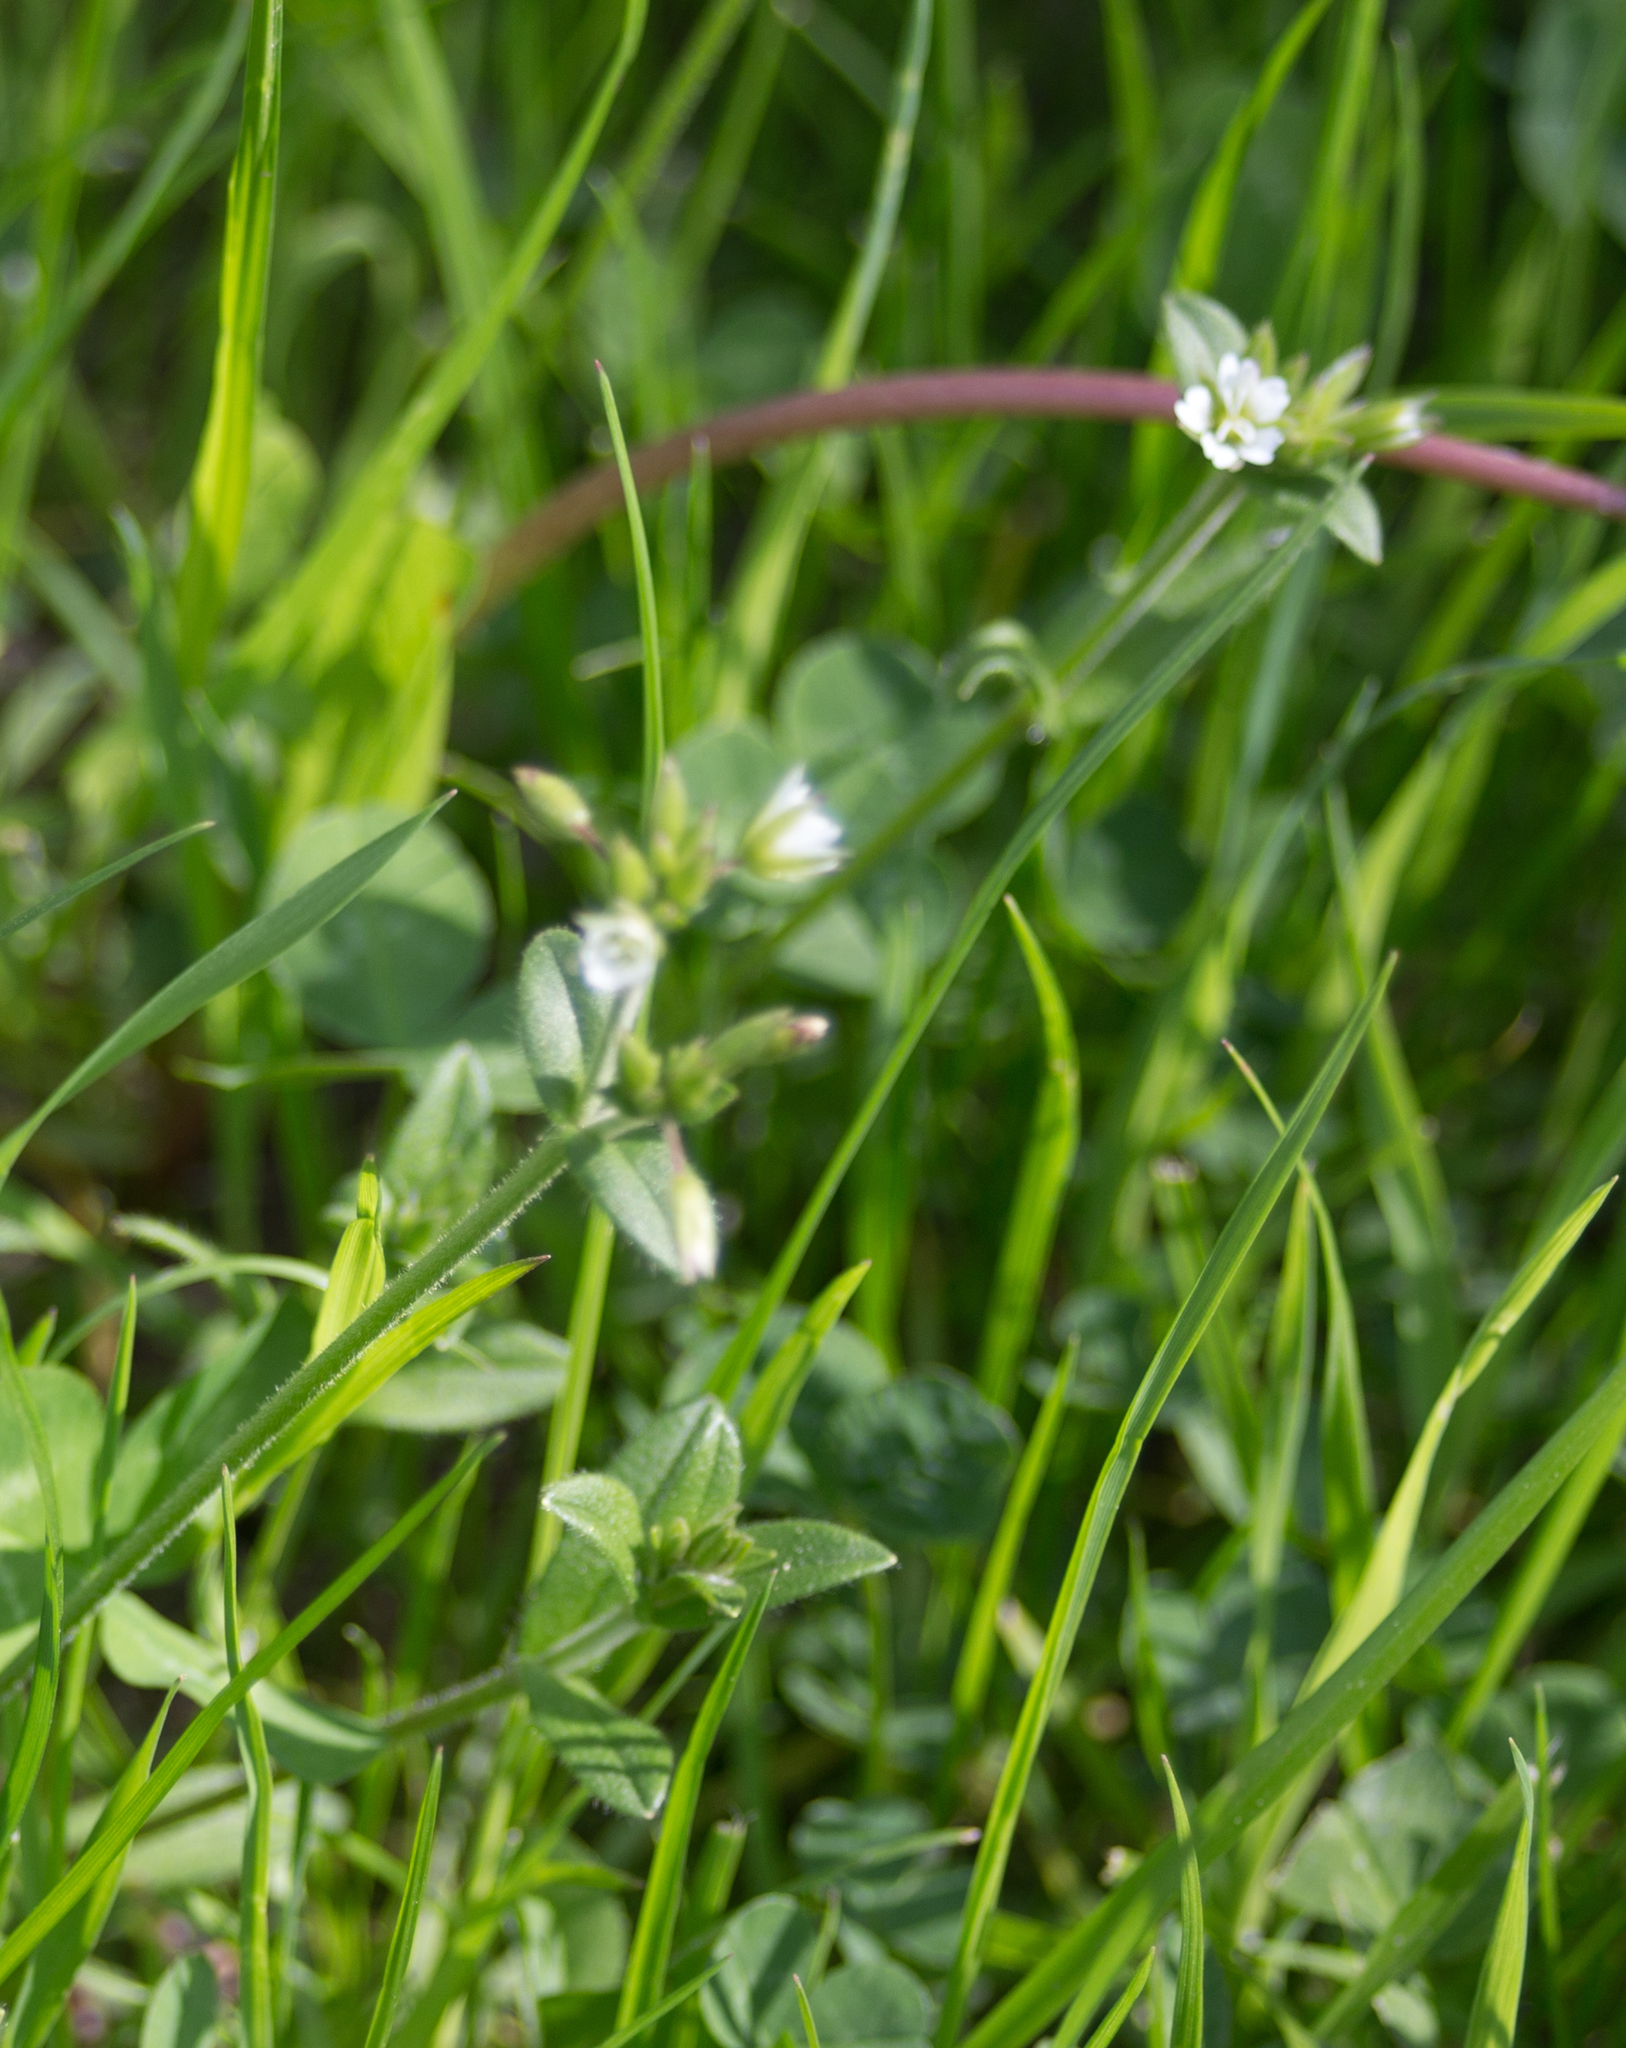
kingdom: Plantae
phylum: Tracheophyta
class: Magnoliopsida
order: Caryophyllales
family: Caryophyllaceae
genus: Cerastium
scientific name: Cerastium holosteoides
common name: Big chickweed
